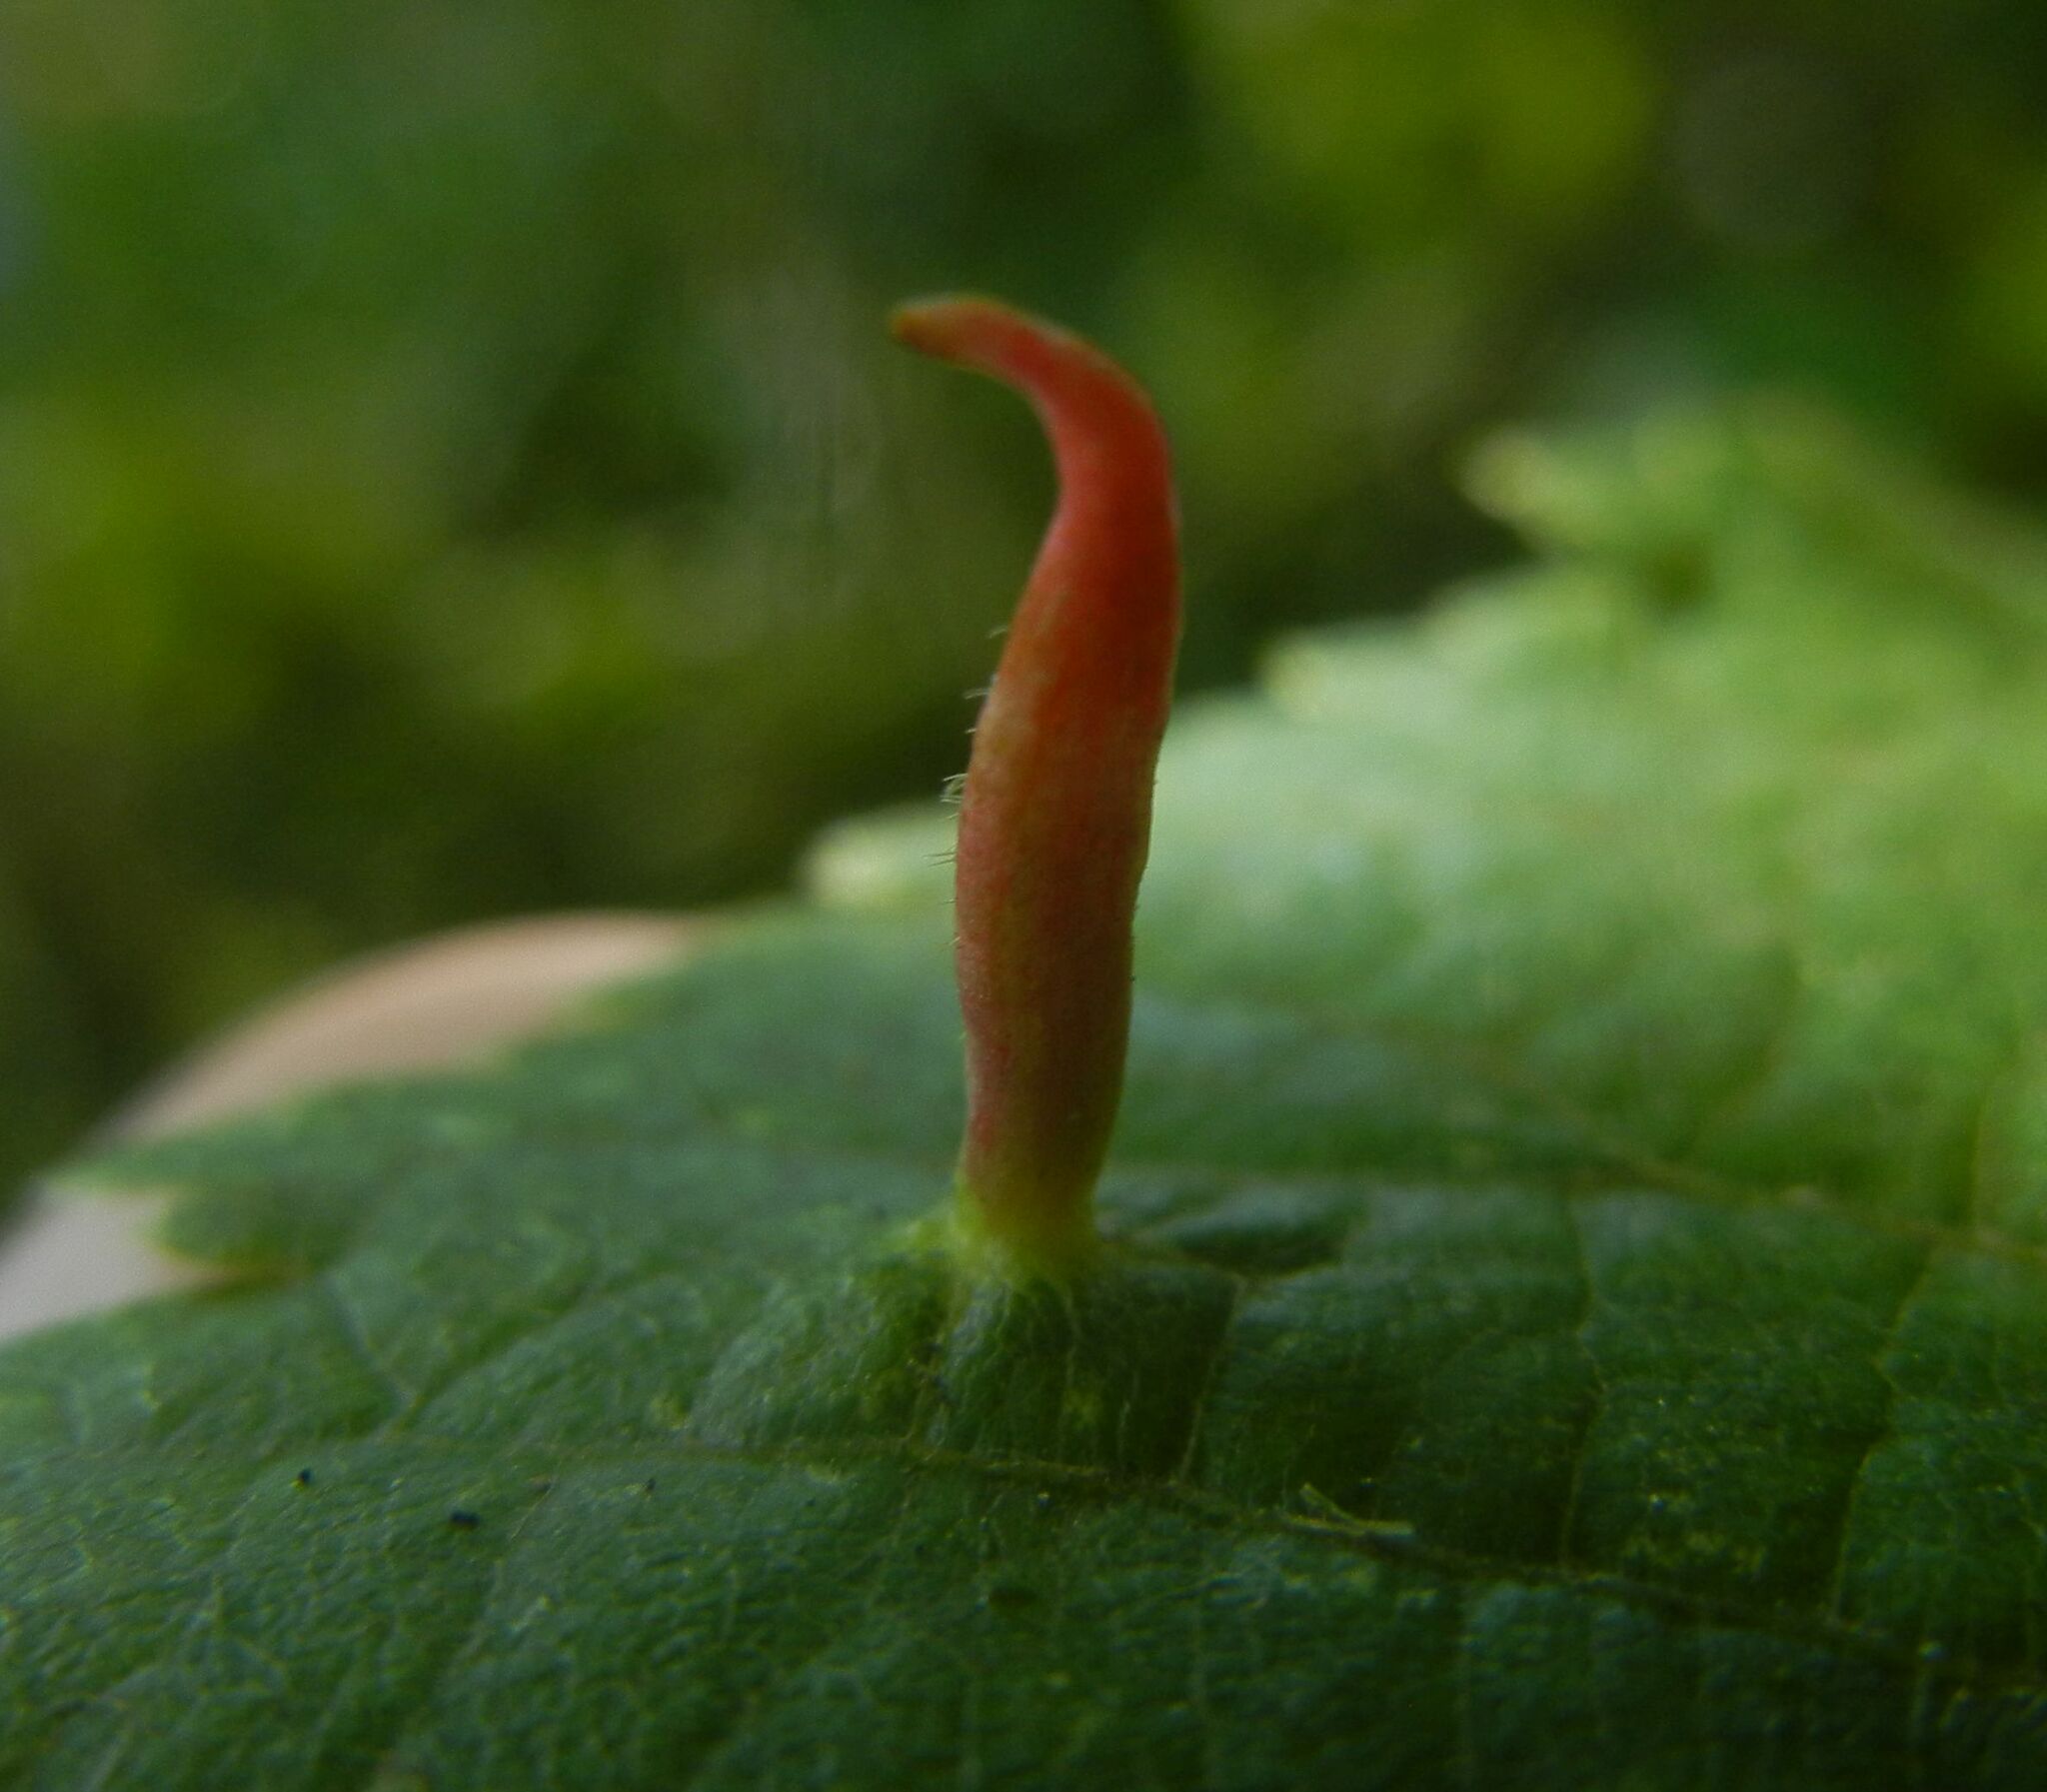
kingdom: Animalia
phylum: Arthropoda
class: Arachnida
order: Trombidiformes
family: Eriophyidae
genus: Eriophyes
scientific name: Eriophyes tiliae
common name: Red nail gall mite
